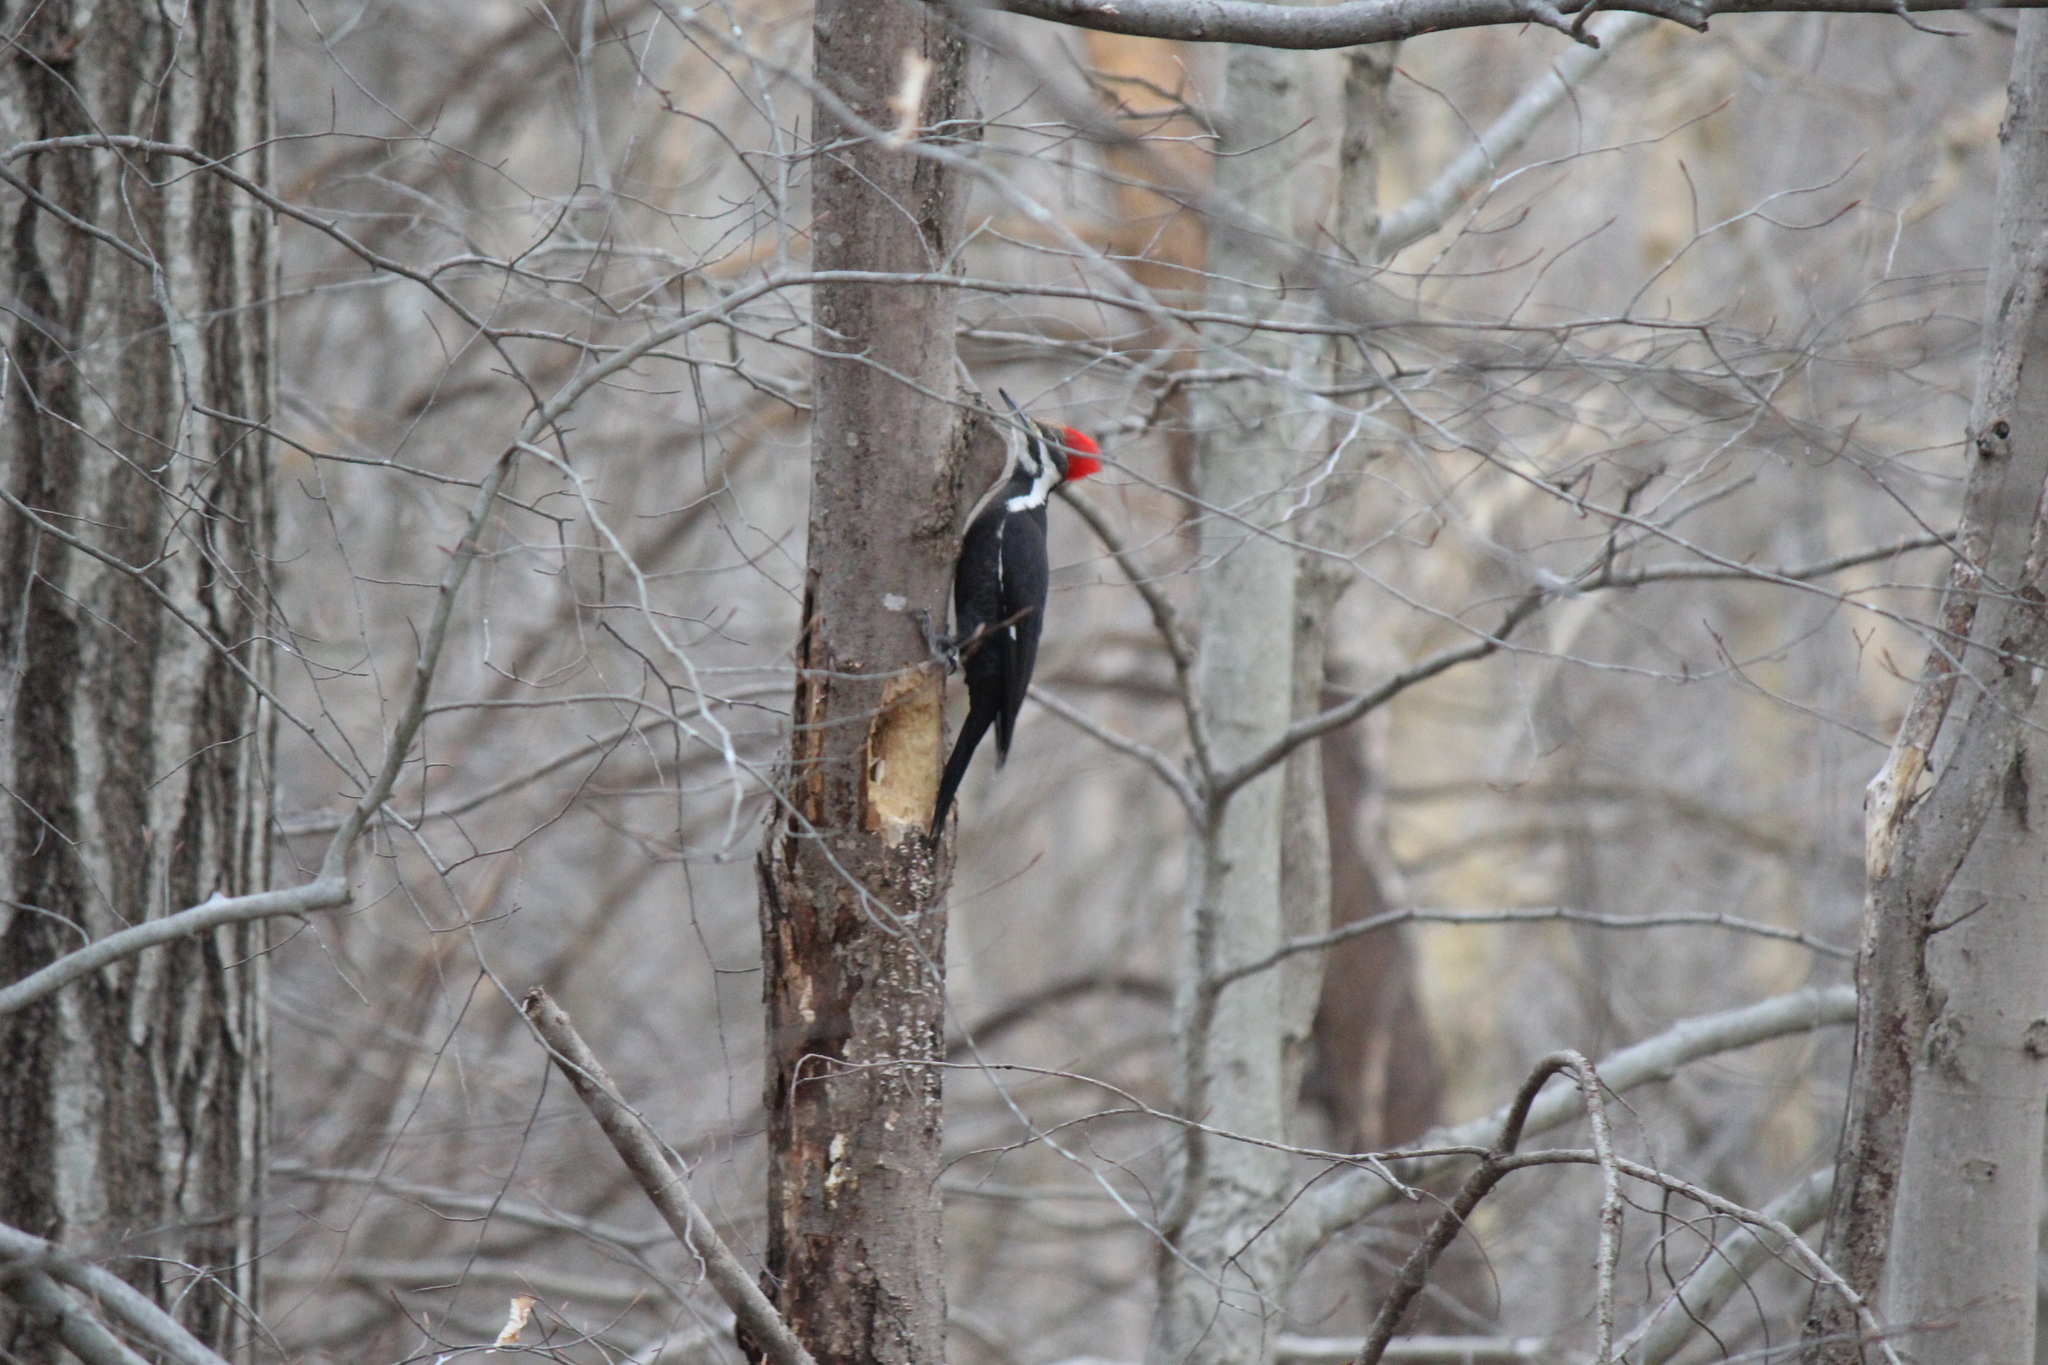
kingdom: Animalia
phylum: Chordata
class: Aves
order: Piciformes
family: Picidae
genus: Dryocopus
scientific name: Dryocopus pileatus
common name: Pileated woodpecker
